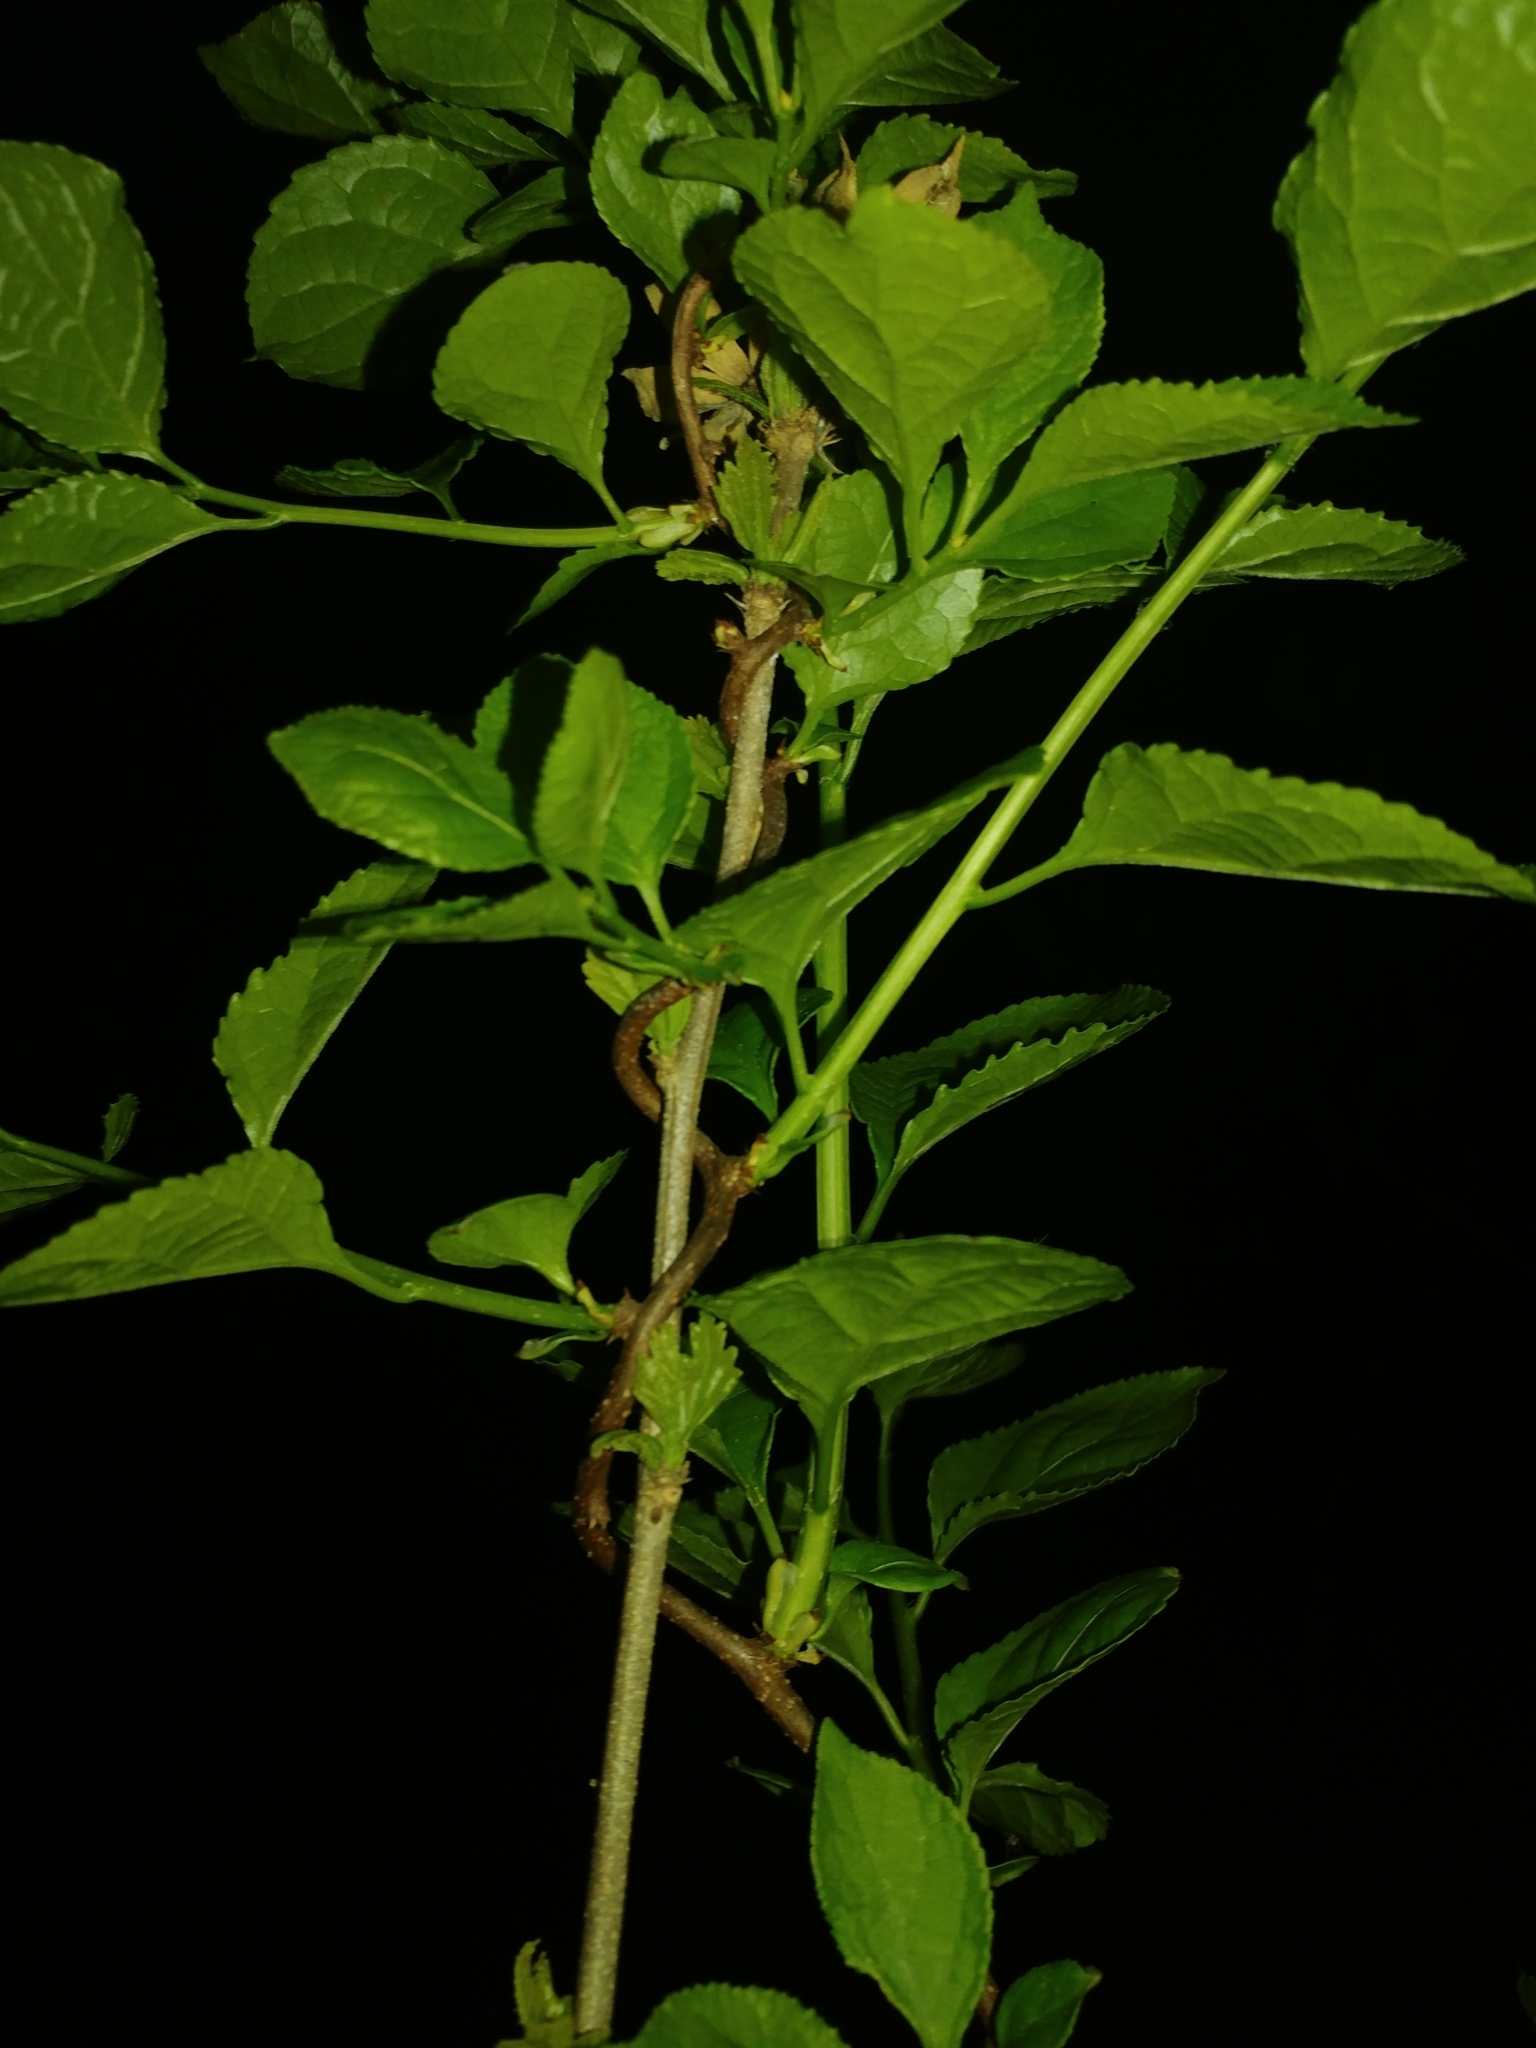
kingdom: Plantae
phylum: Tracheophyta
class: Magnoliopsida
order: Celastrales
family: Celastraceae
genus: Celastrus
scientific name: Celastrus orbiculatus
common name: Oriental bittersweet
